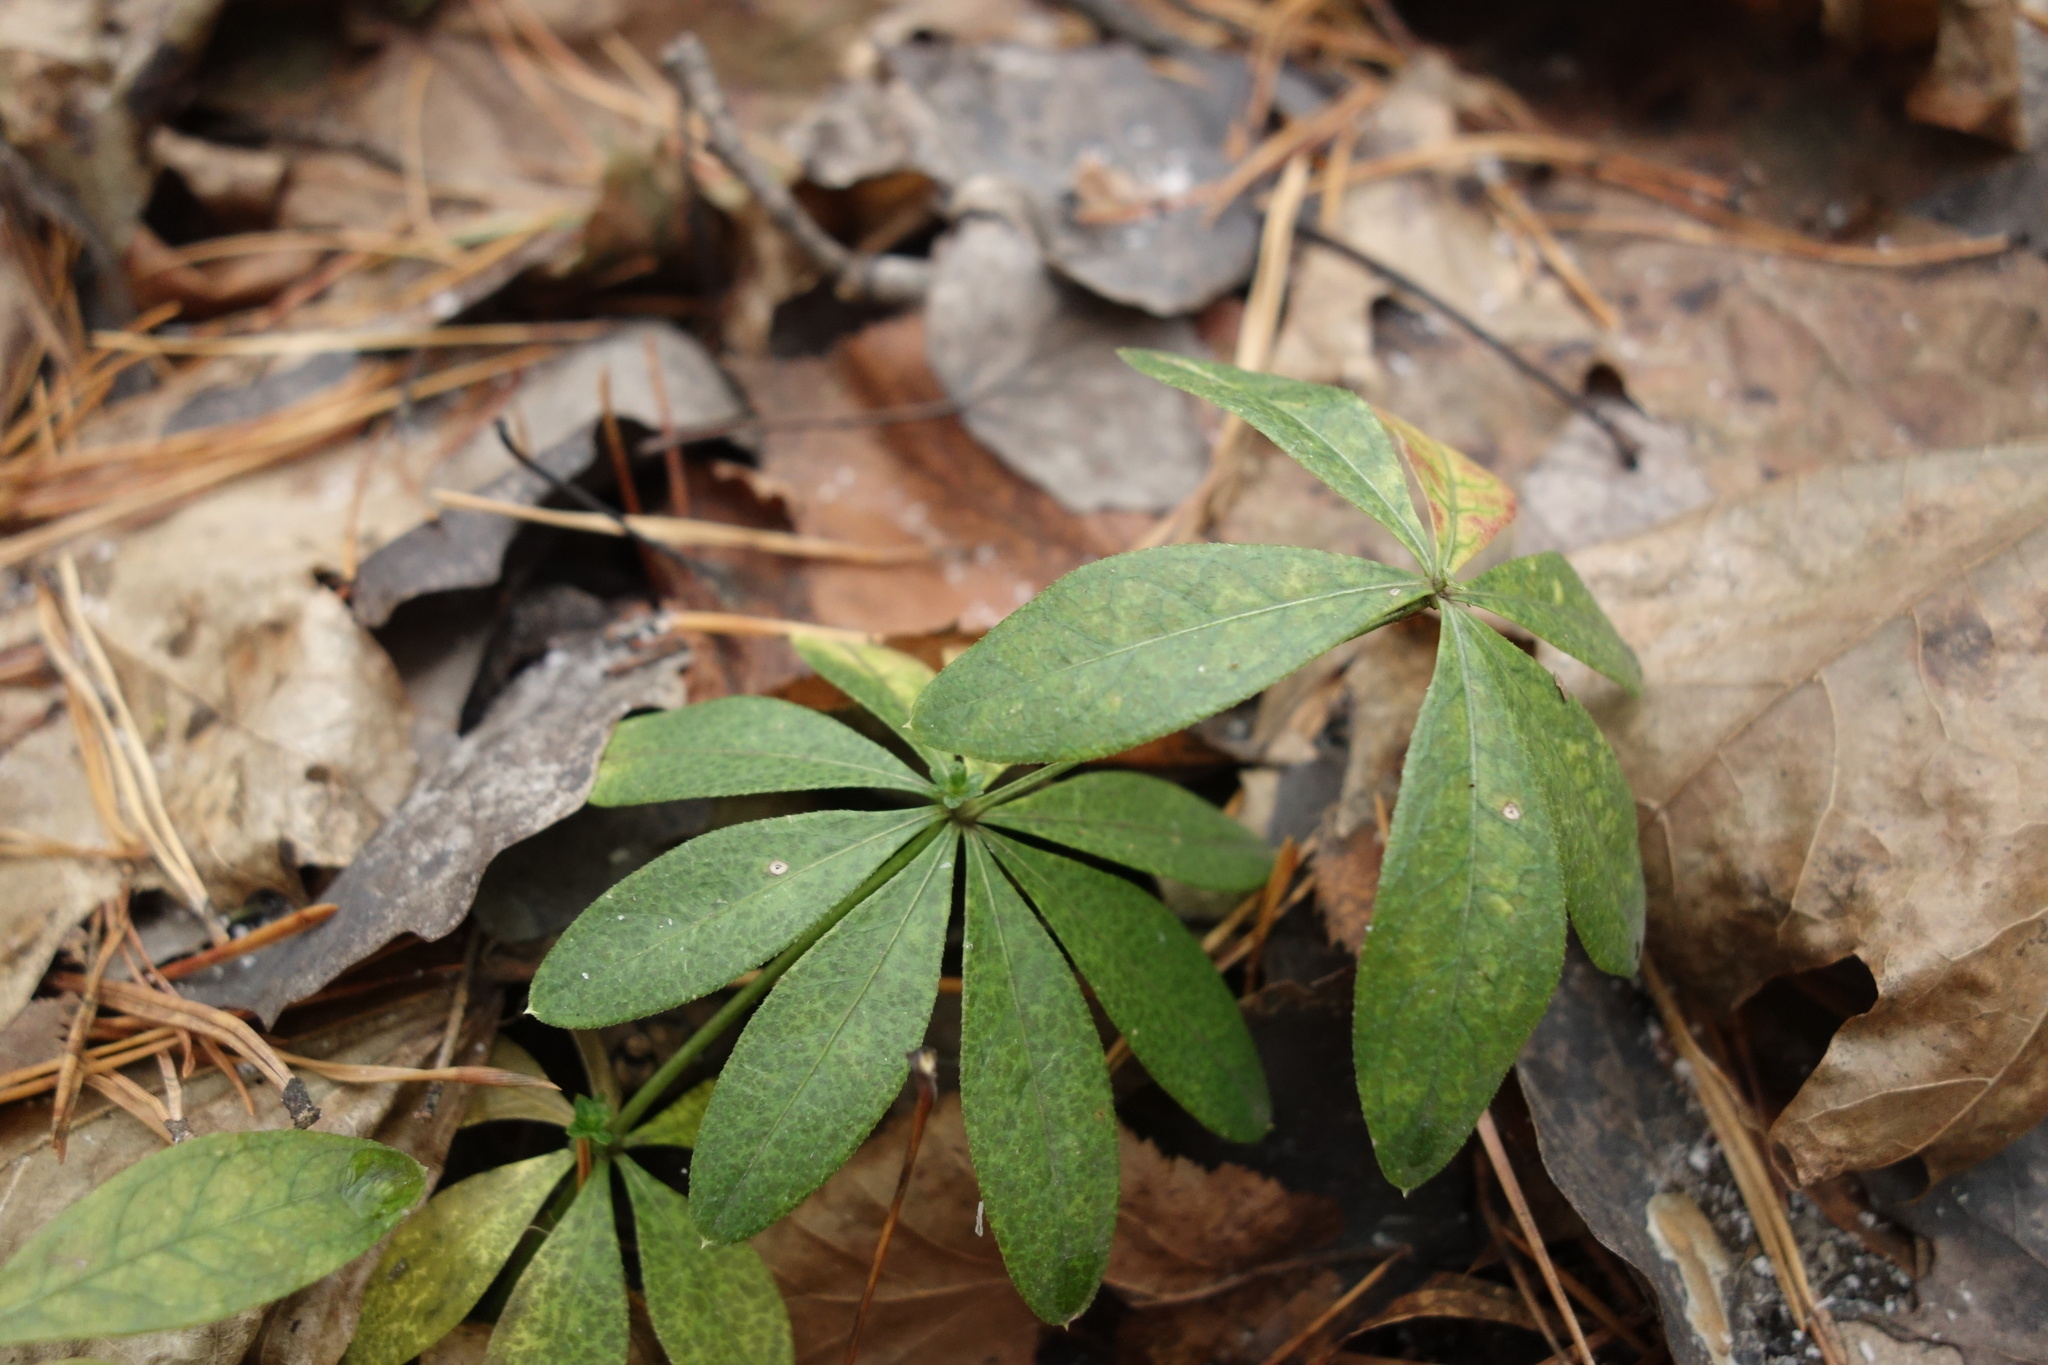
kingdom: Plantae
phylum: Tracheophyta
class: Magnoliopsida
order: Gentianales
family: Rubiaceae
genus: Galium
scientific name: Galium odoratum
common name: Sweet woodruff
